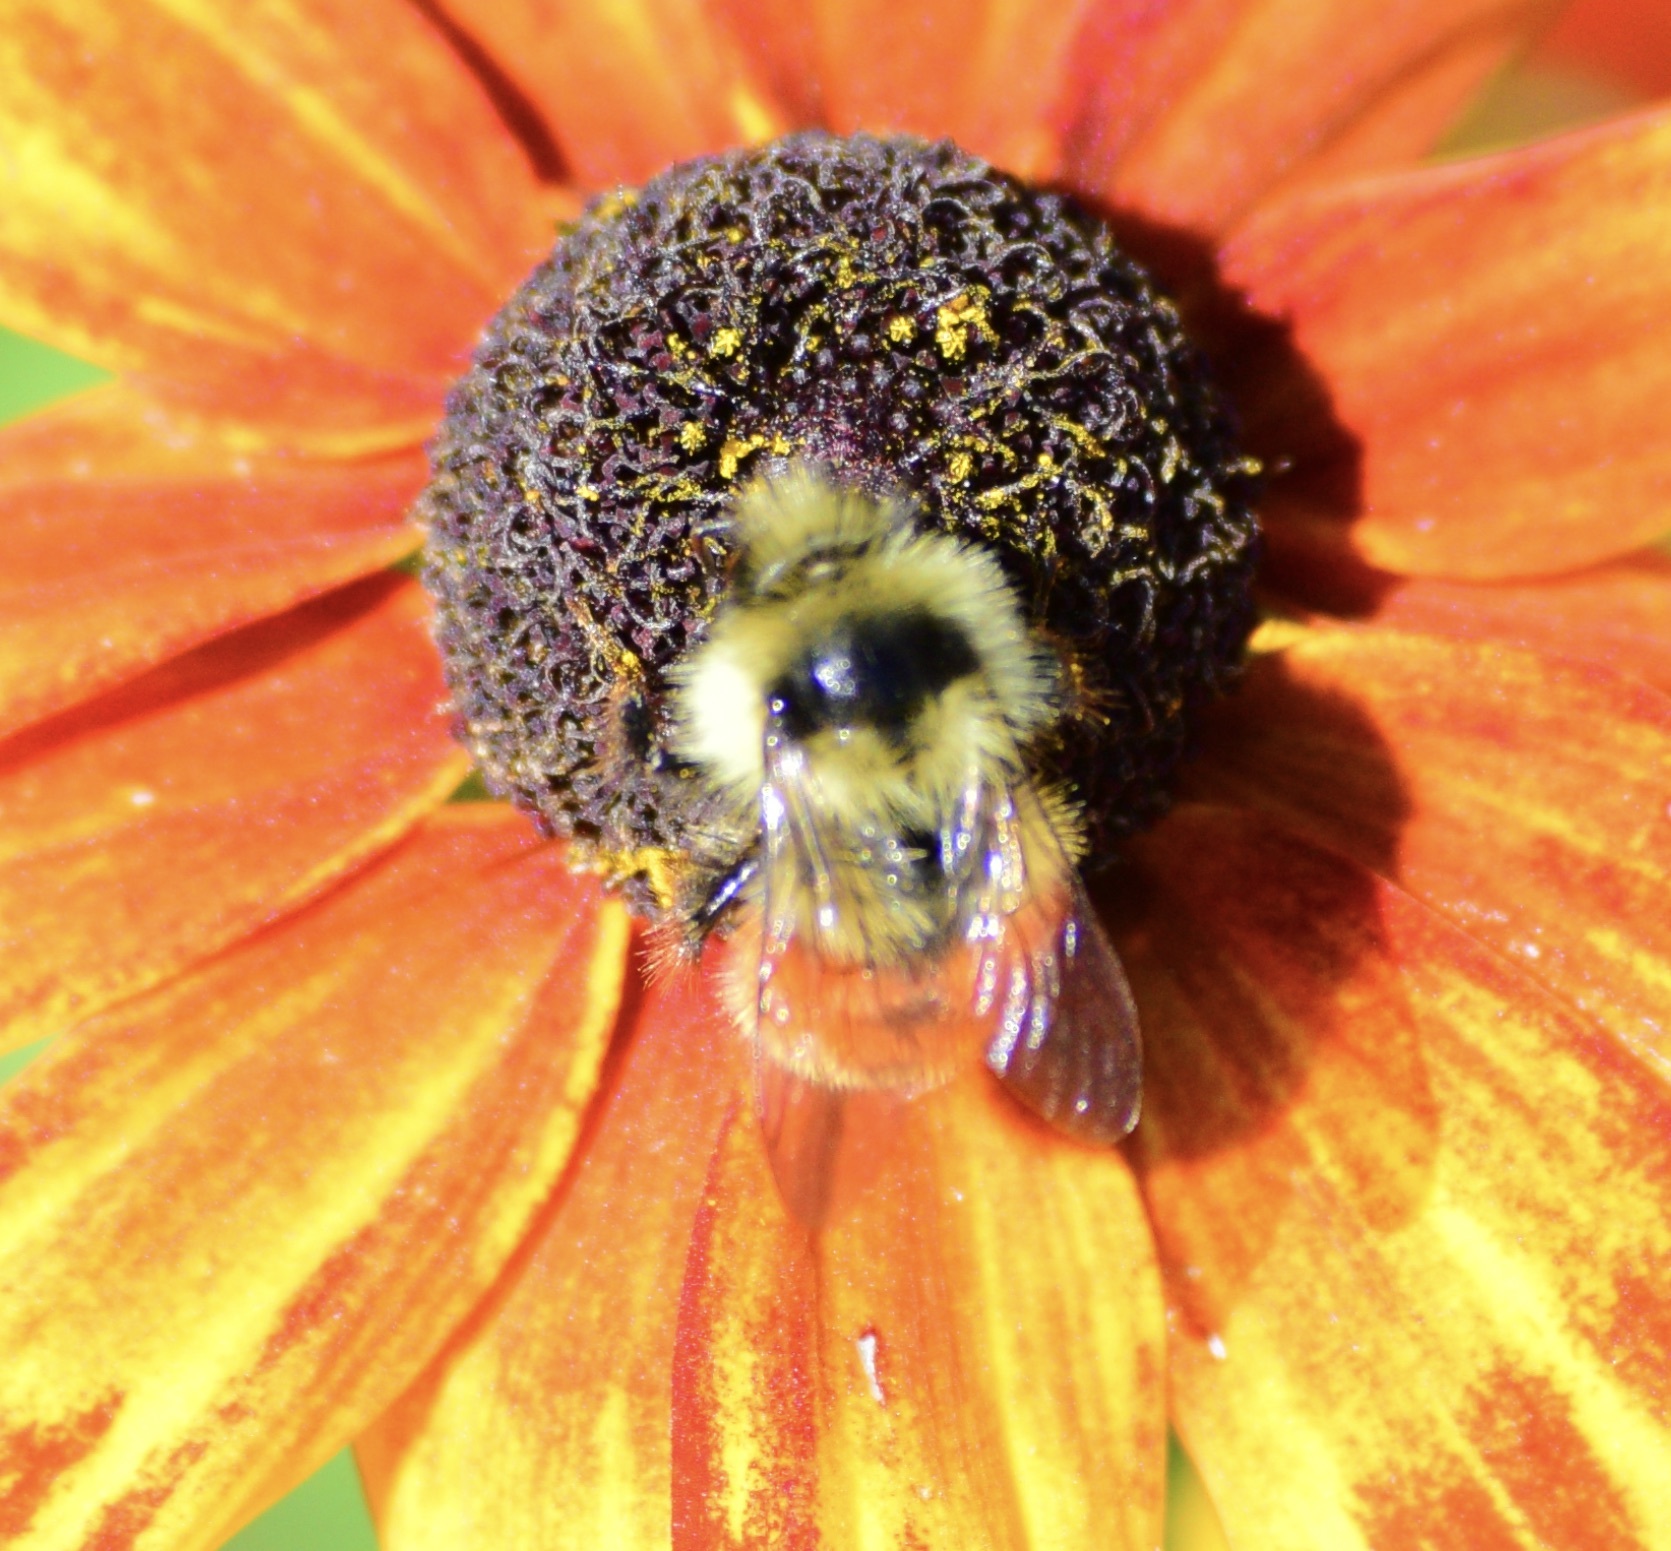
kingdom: Animalia
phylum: Arthropoda
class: Insecta
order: Hymenoptera
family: Apidae
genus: Bombus
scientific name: Bombus ternarius
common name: Tri-colored bumble bee
